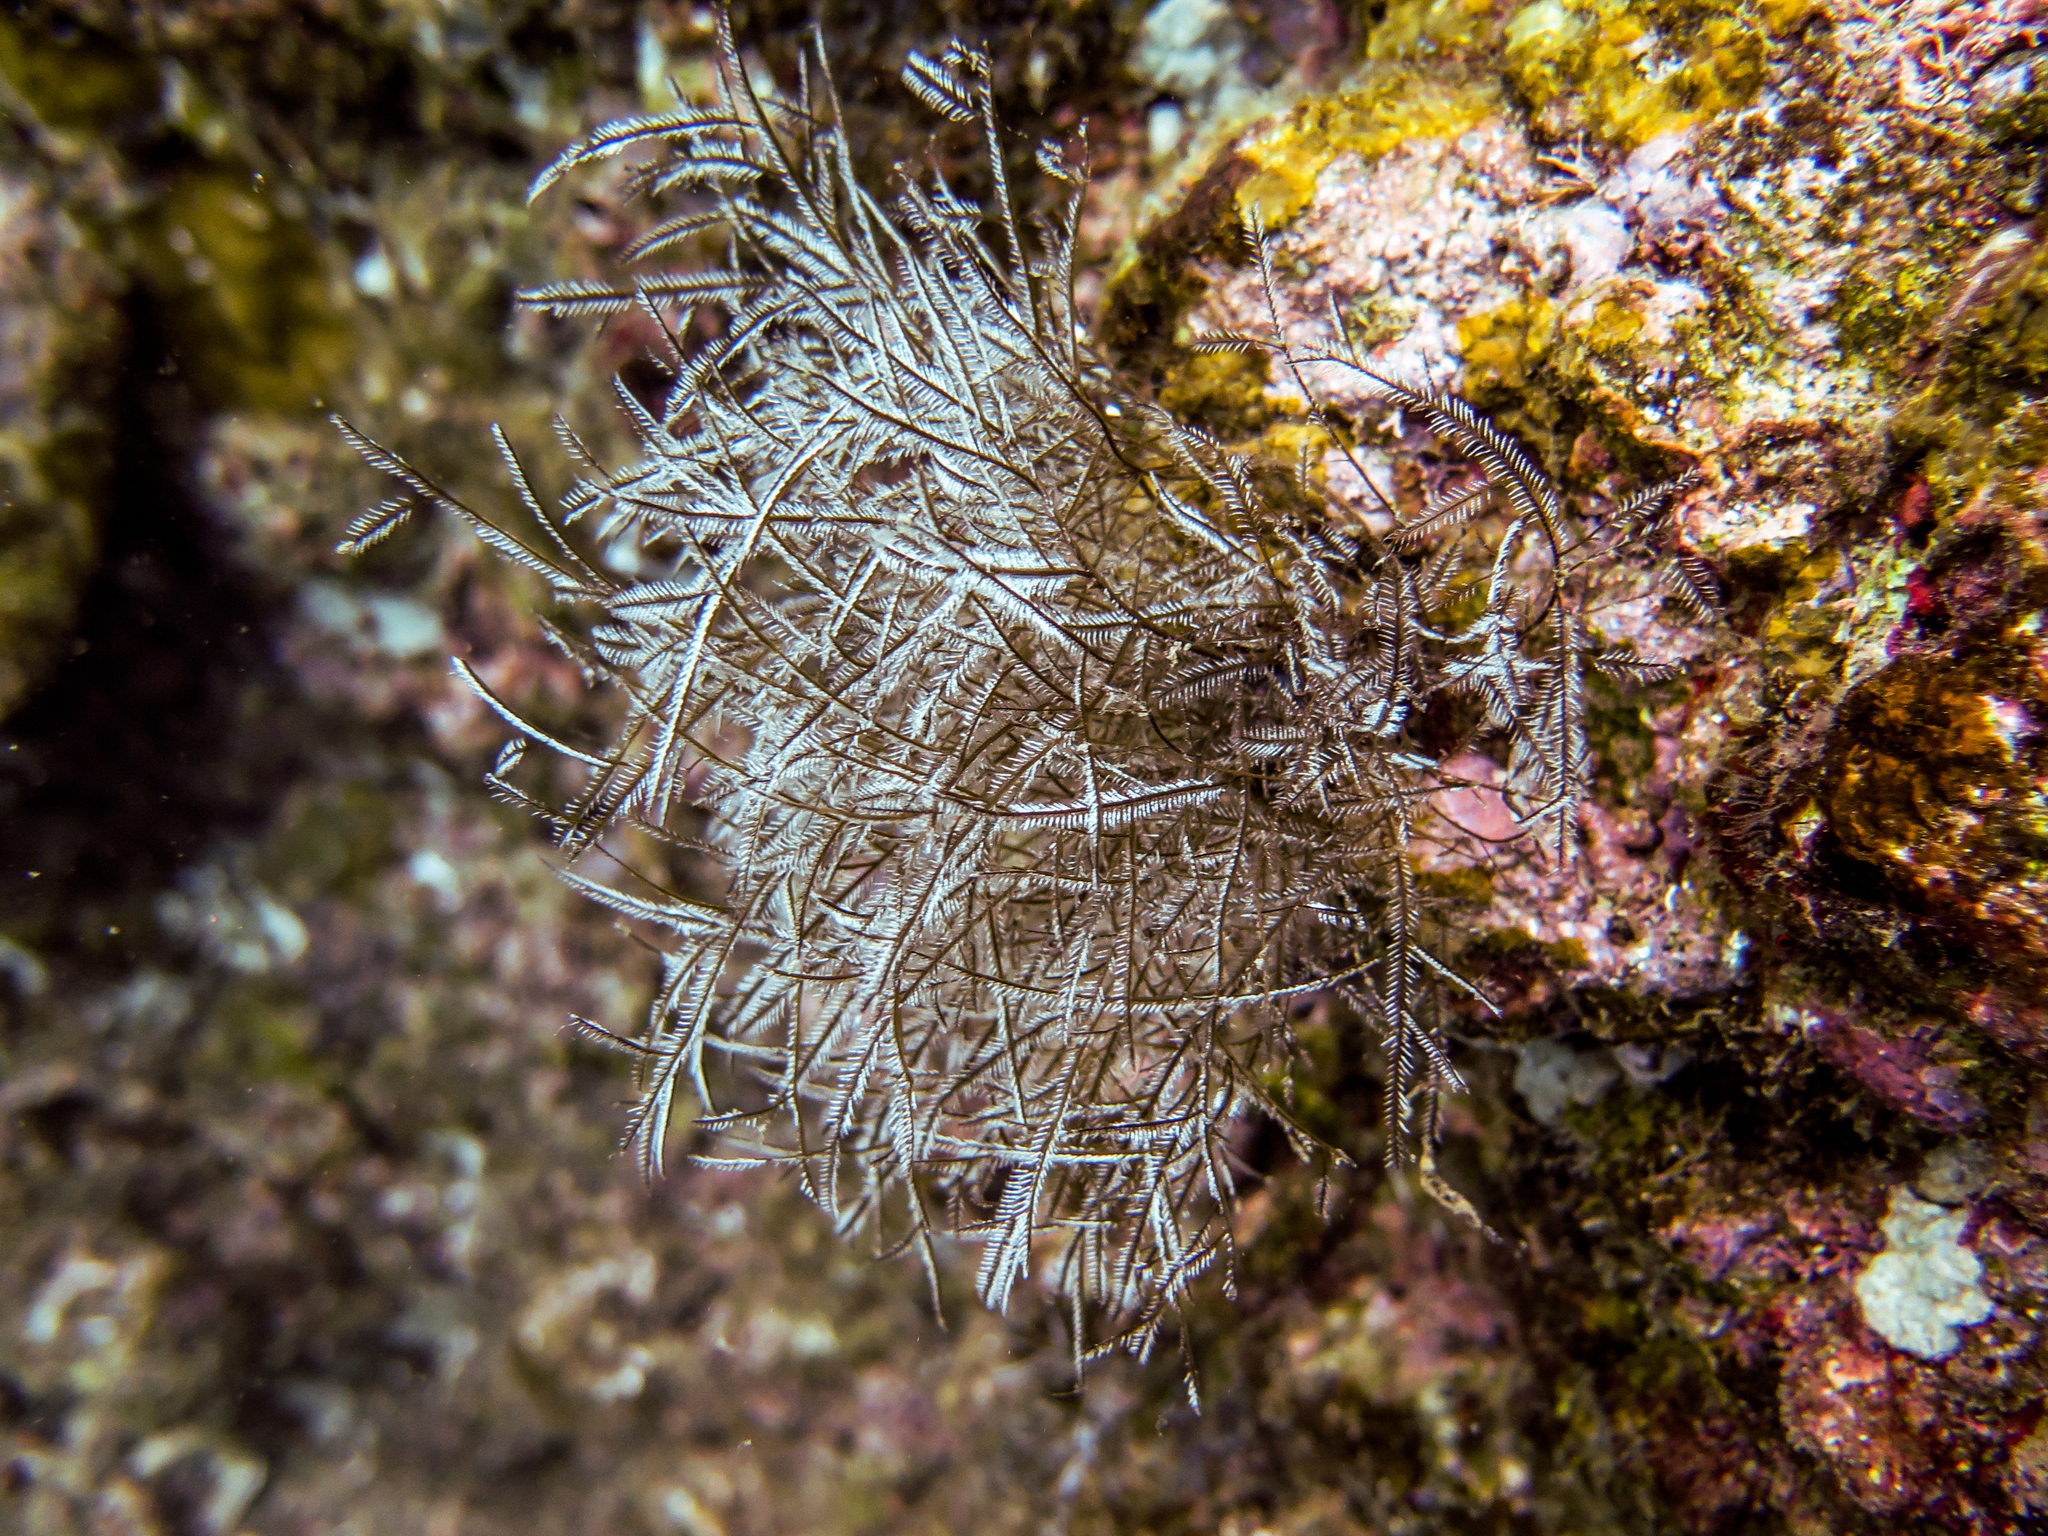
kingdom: Animalia
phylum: Cnidaria
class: Hydrozoa
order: Leptothecata
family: Aglaopheniidae
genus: Macrorhynchia
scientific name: Macrorhynchia philippina
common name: Stinging hydroid
